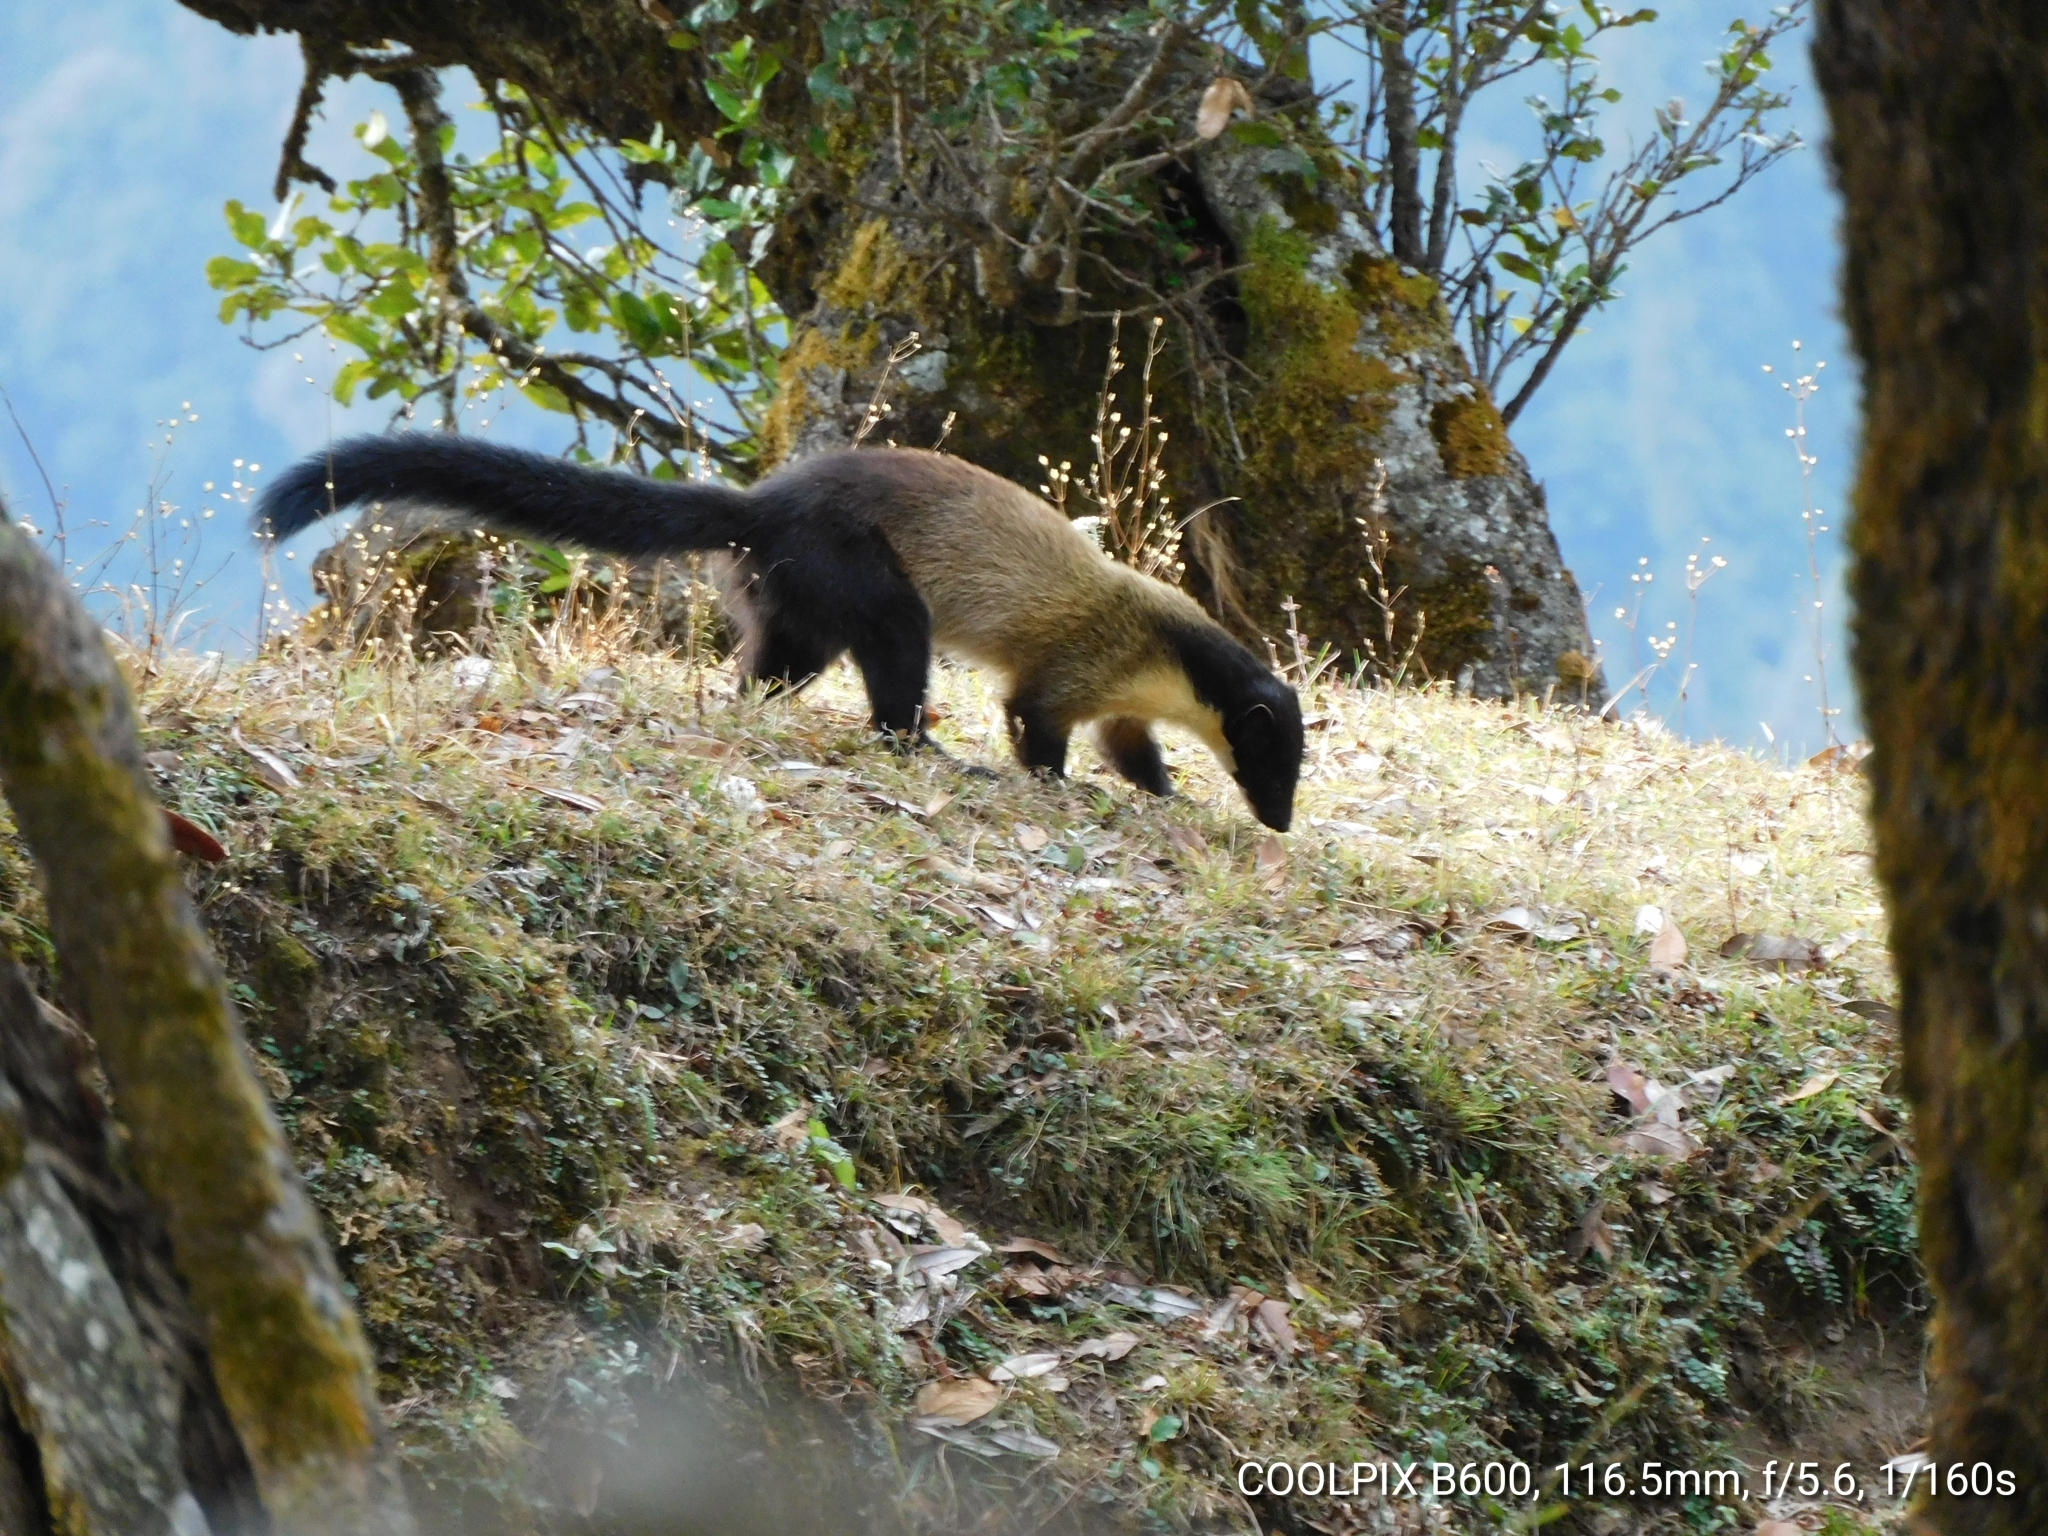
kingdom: Animalia
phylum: Chordata
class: Mammalia
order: Carnivora
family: Mustelidae
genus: Martes
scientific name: Martes flavigula
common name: Yellow-throated marten
